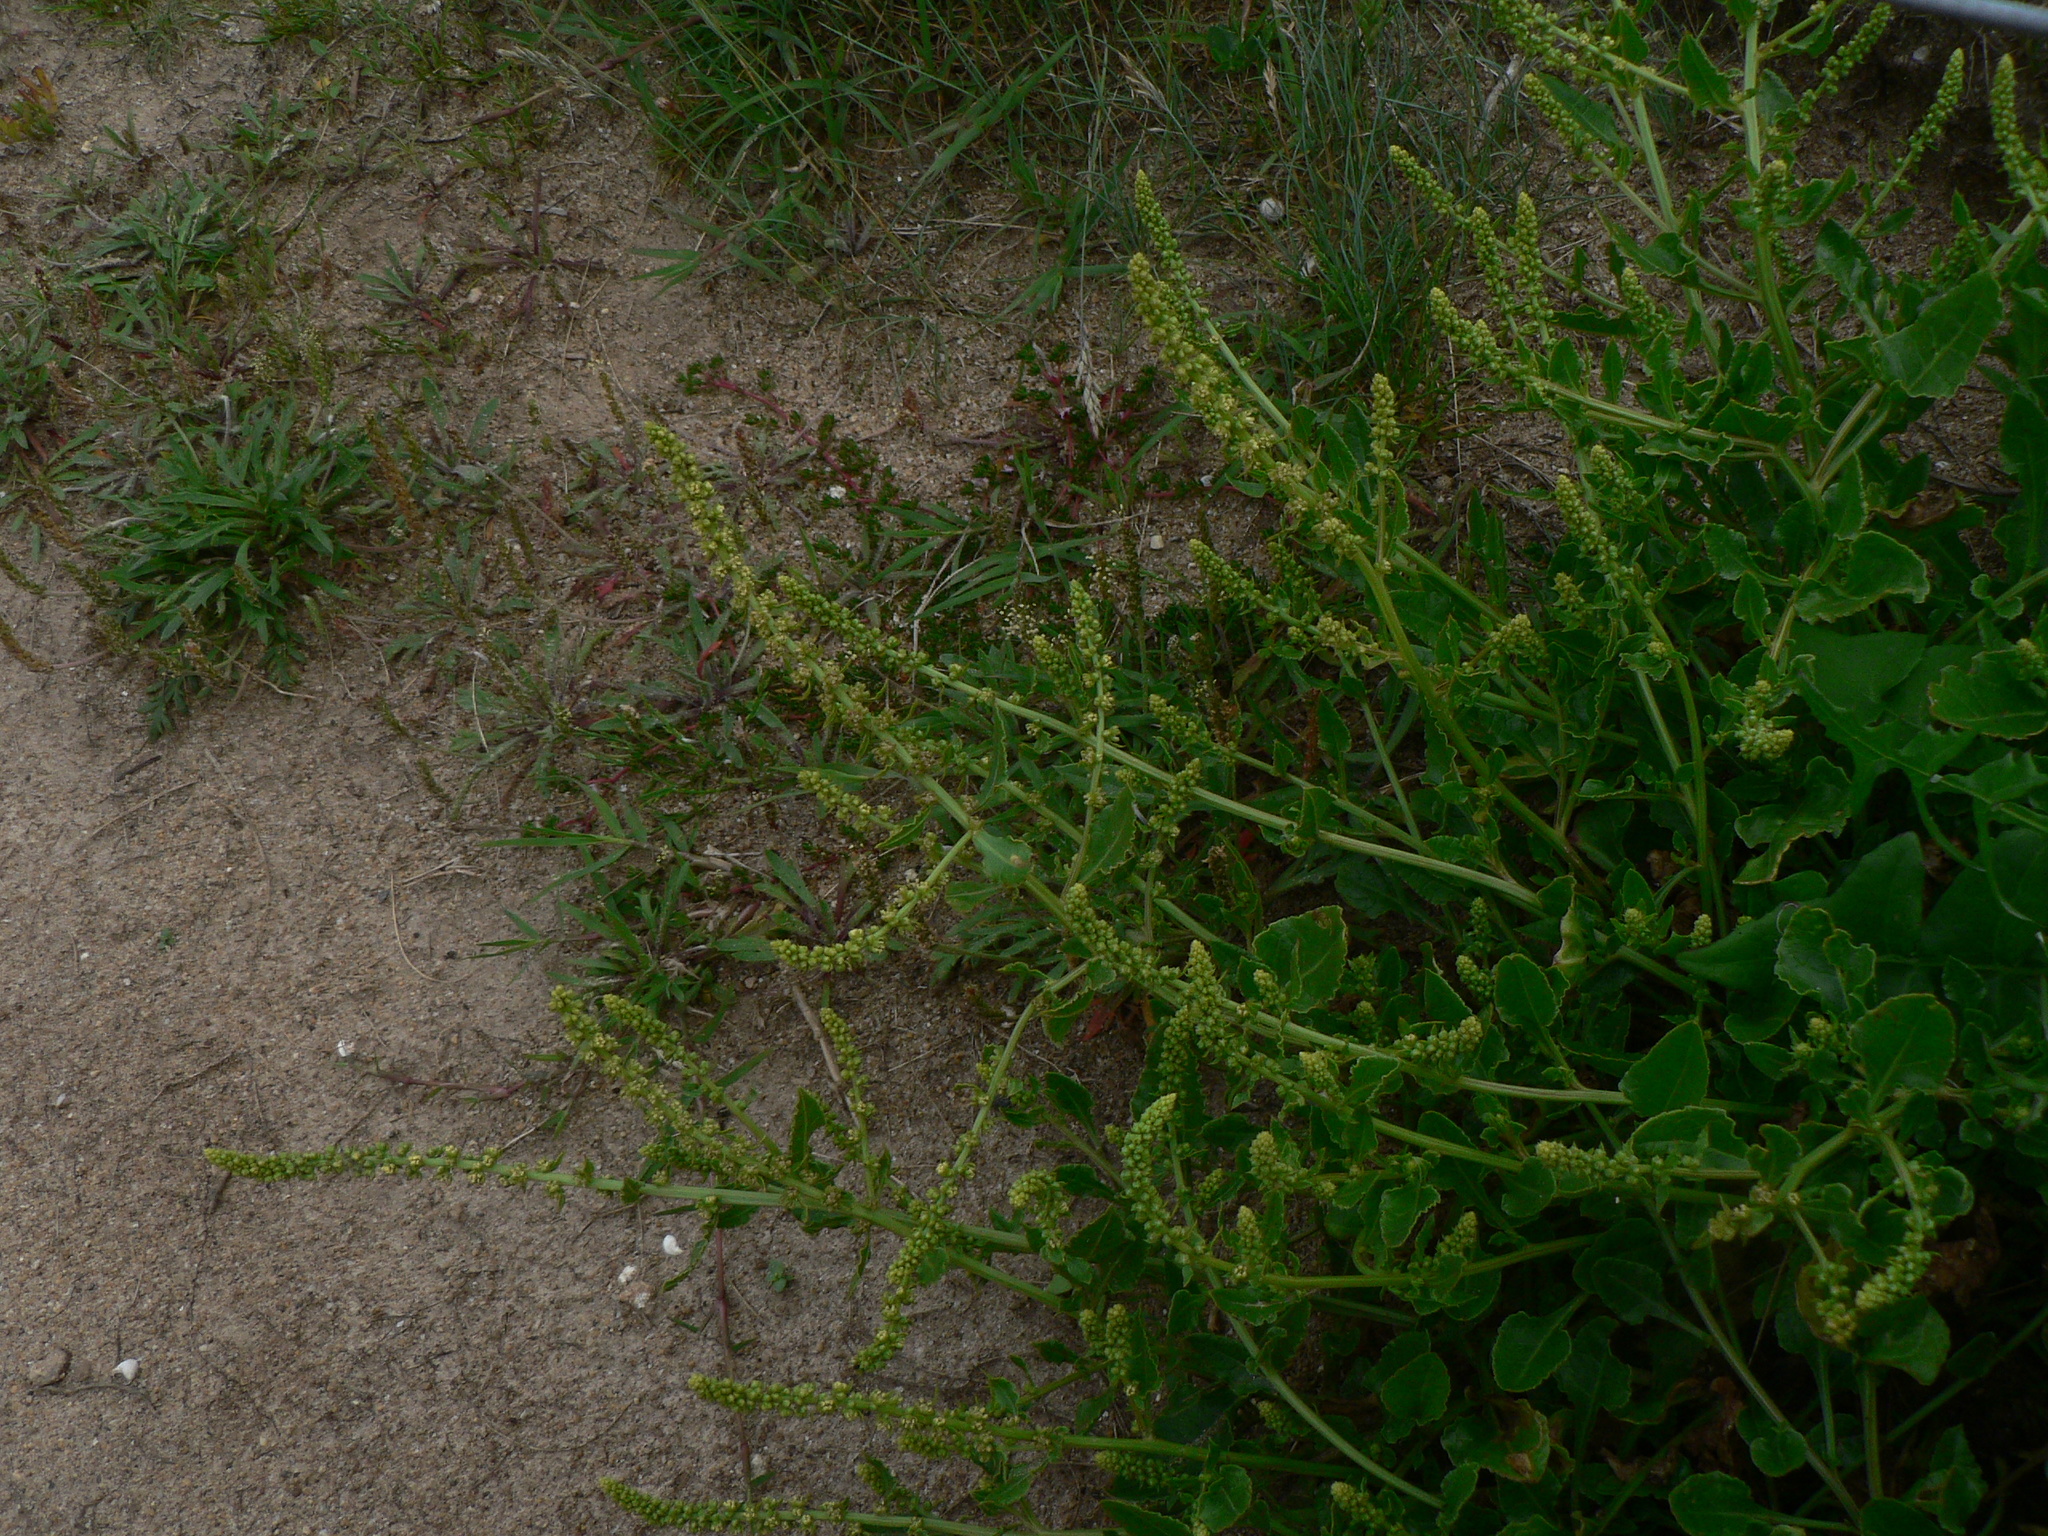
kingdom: Plantae
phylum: Tracheophyta
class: Magnoliopsida
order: Caryophyllales
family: Amaranthaceae
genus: Beta
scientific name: Beta vulgaris
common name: Beet
